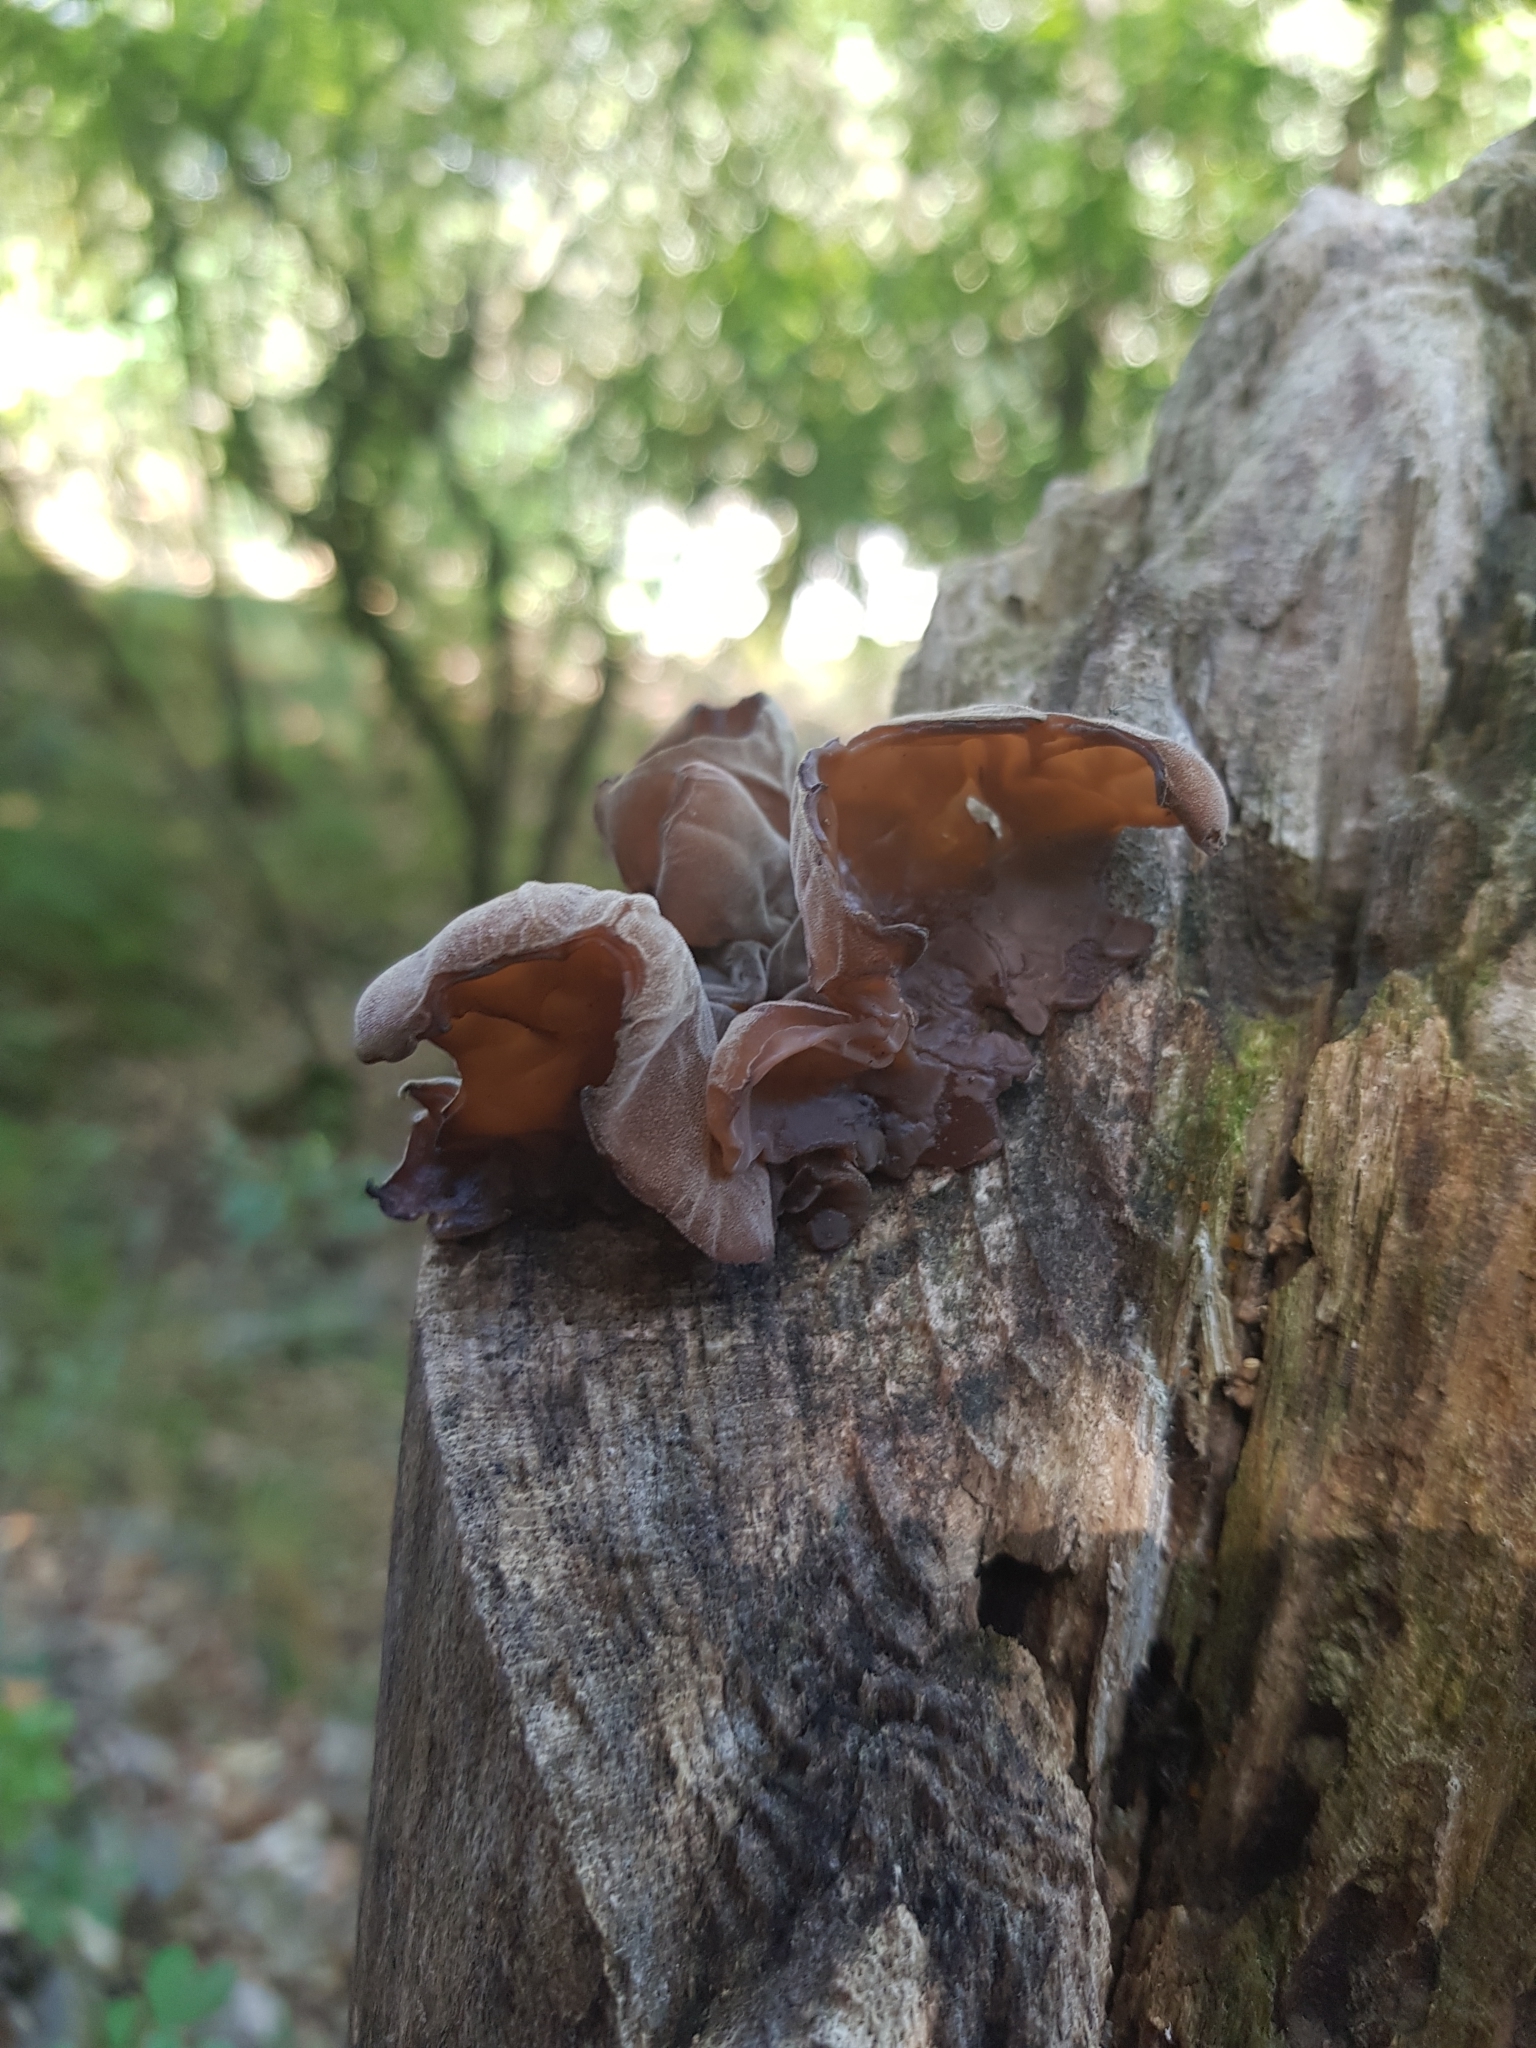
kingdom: Fungi
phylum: Basidiomycota
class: Agaricomycetes
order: Auriculariales
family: Auriculariaceae
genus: Auricularia
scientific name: Auricularia auricula-judae
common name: Jelly ear
